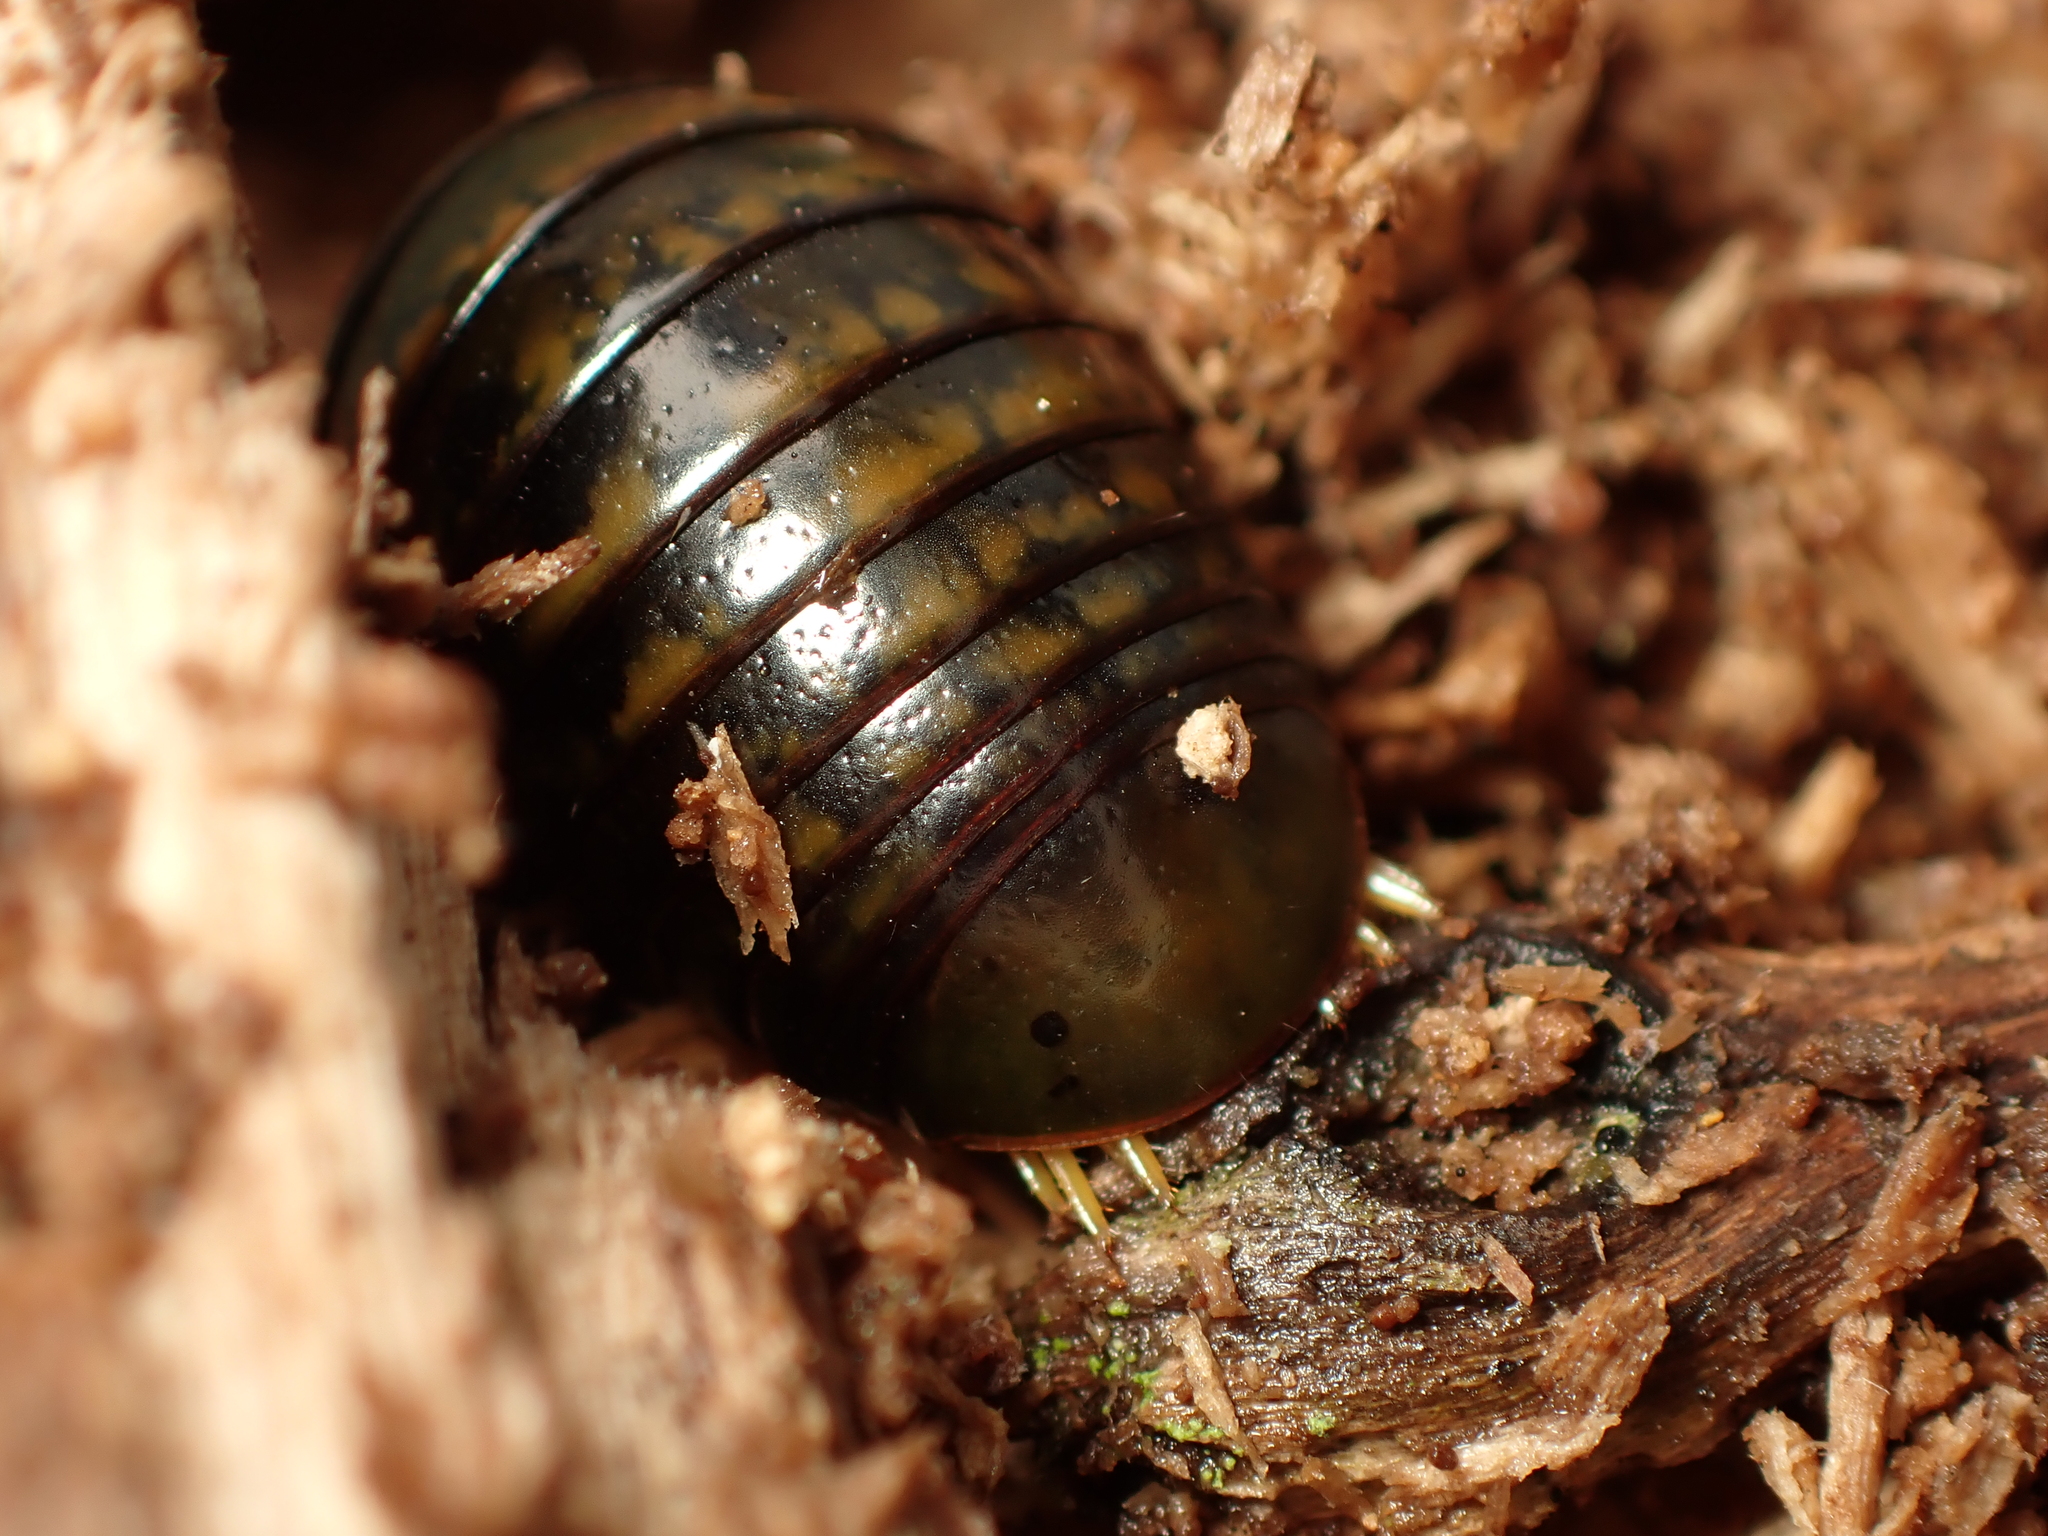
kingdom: Animalia
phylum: Arthropoda
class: Diplopoda
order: Sphaerotheriida
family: Procyliosomatidae
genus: Procyliosoma
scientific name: Procyliosoma delacyi
